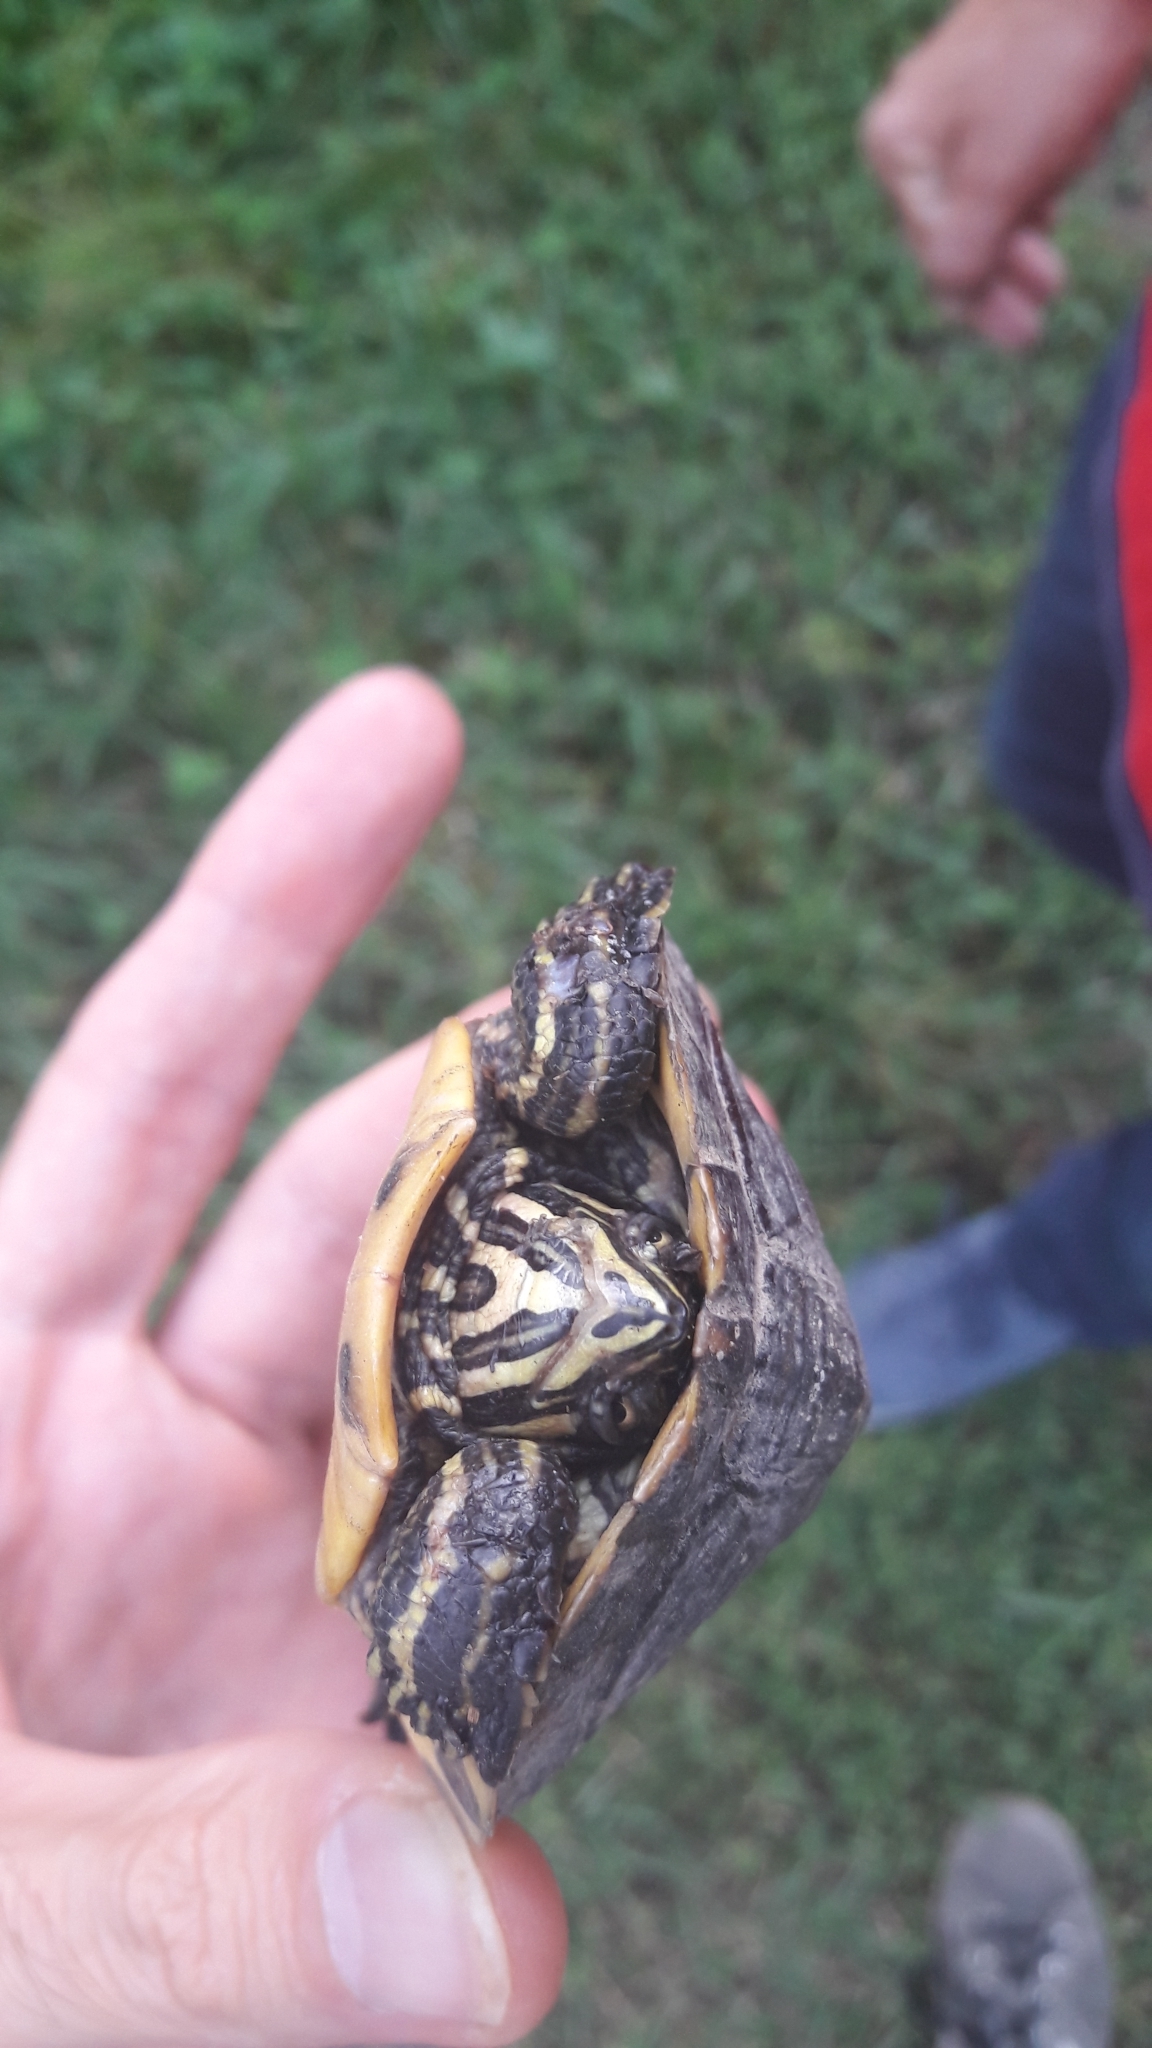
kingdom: Animalia
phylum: Chordata
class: Testudines
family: Emydidae
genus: Trachemys
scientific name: Trachemys scripta
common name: Slider
